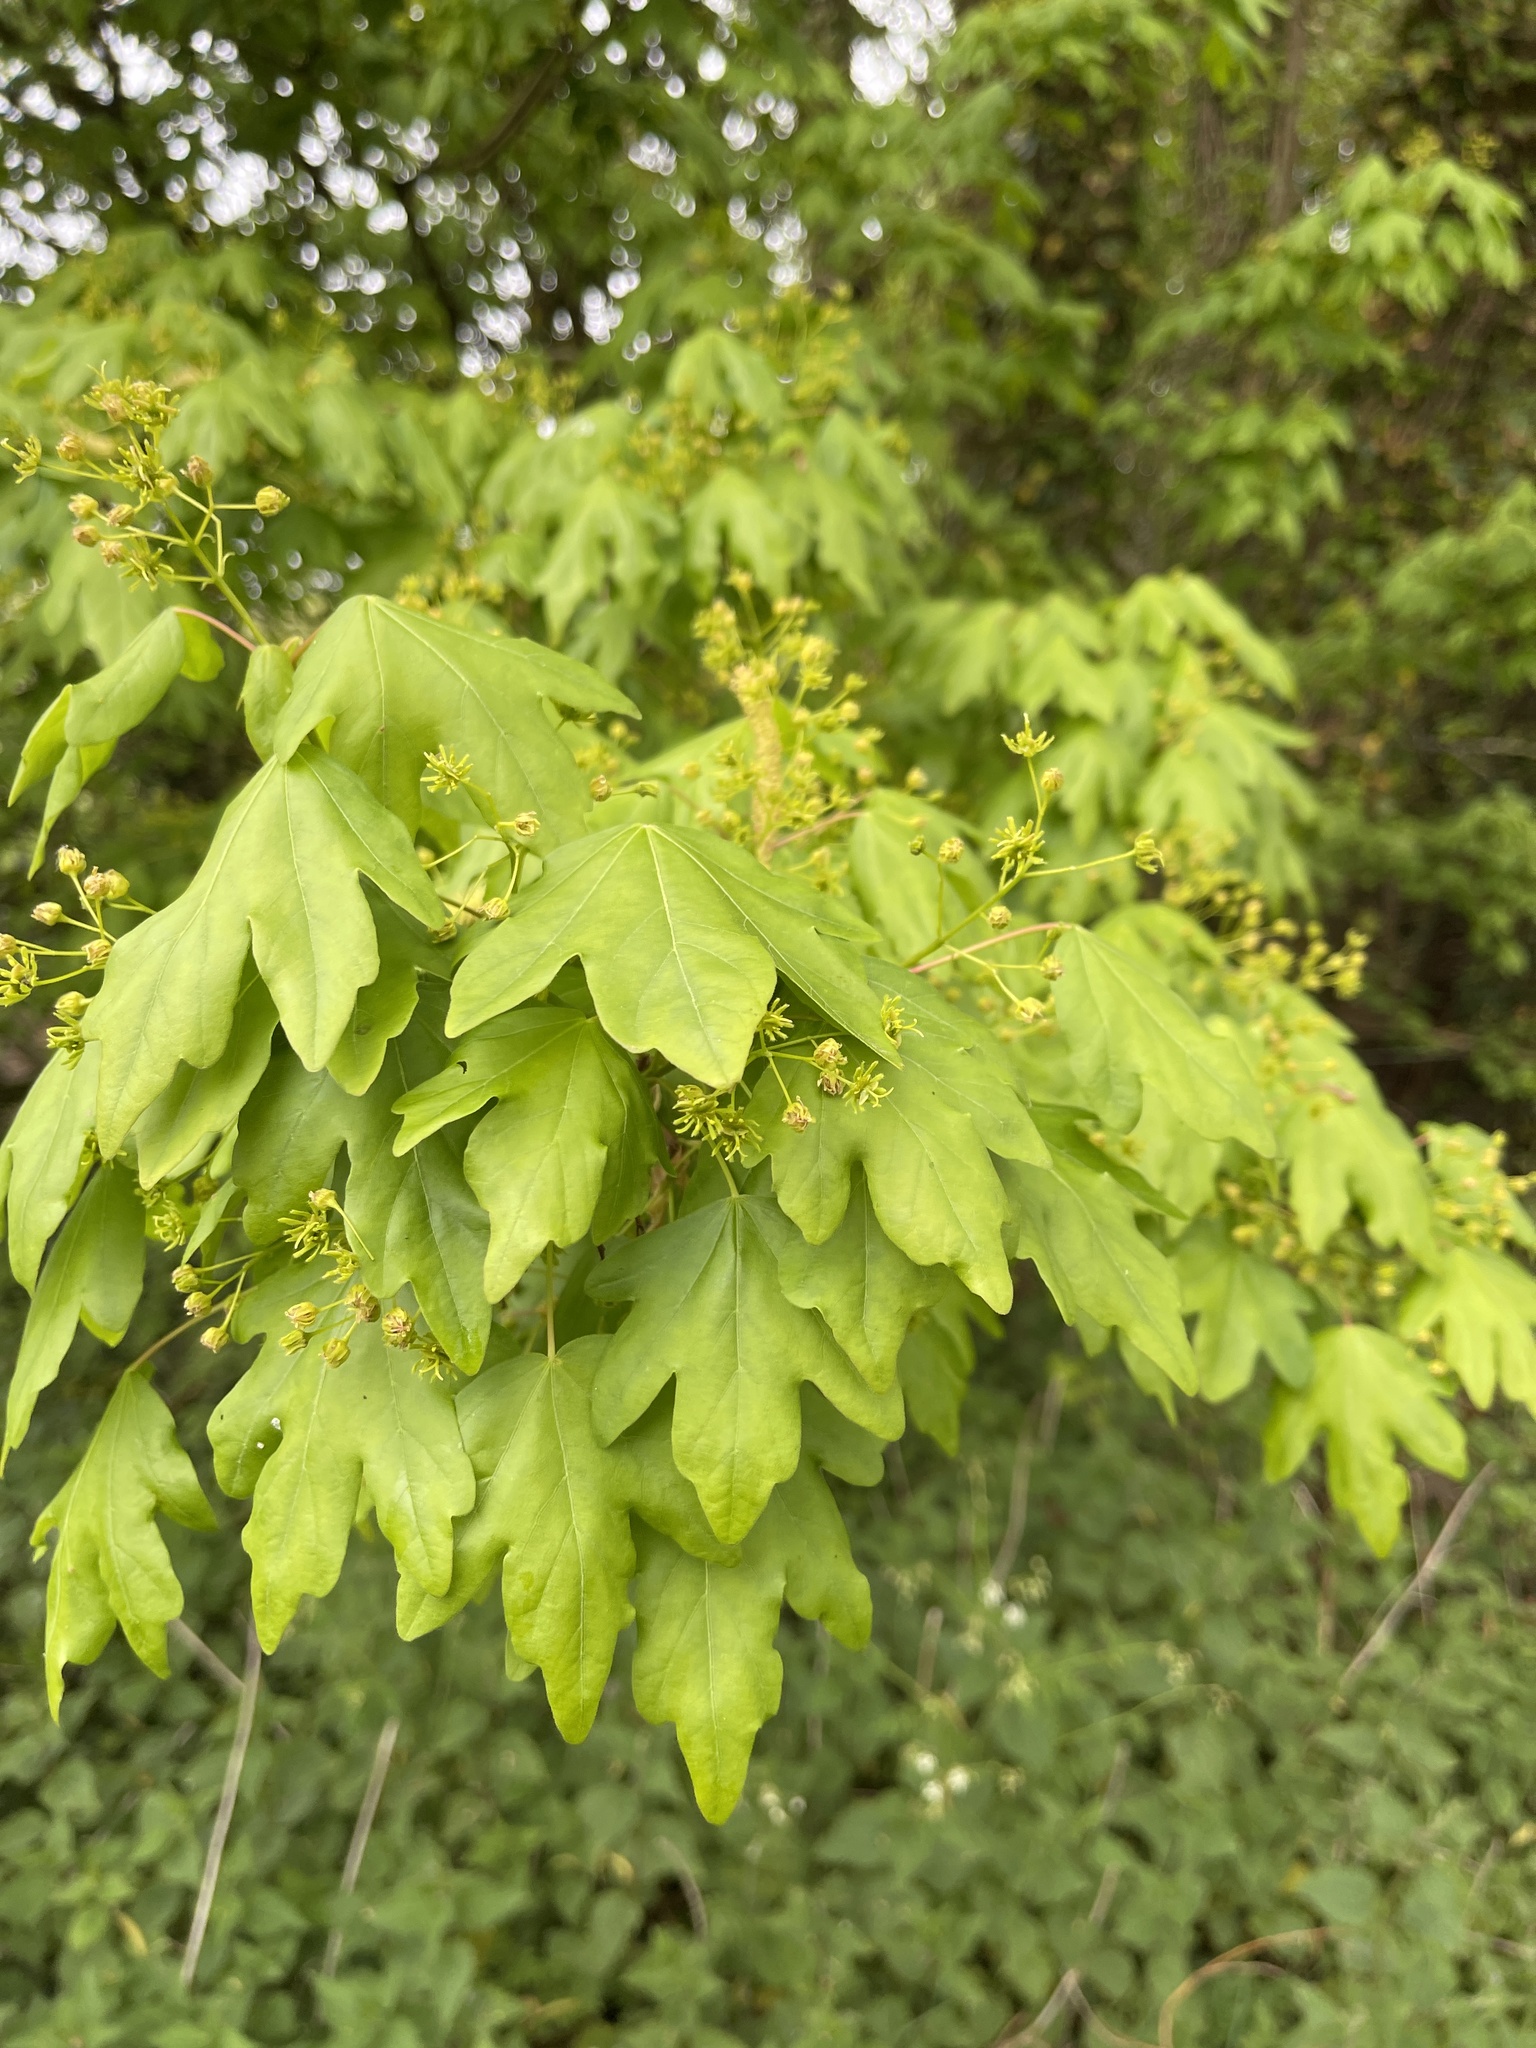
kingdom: Plantae
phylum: Tracheophyta
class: Magnoliopsida
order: Sapindales
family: Sapindaceae
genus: Acer
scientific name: Acer campestre
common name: Field maple
